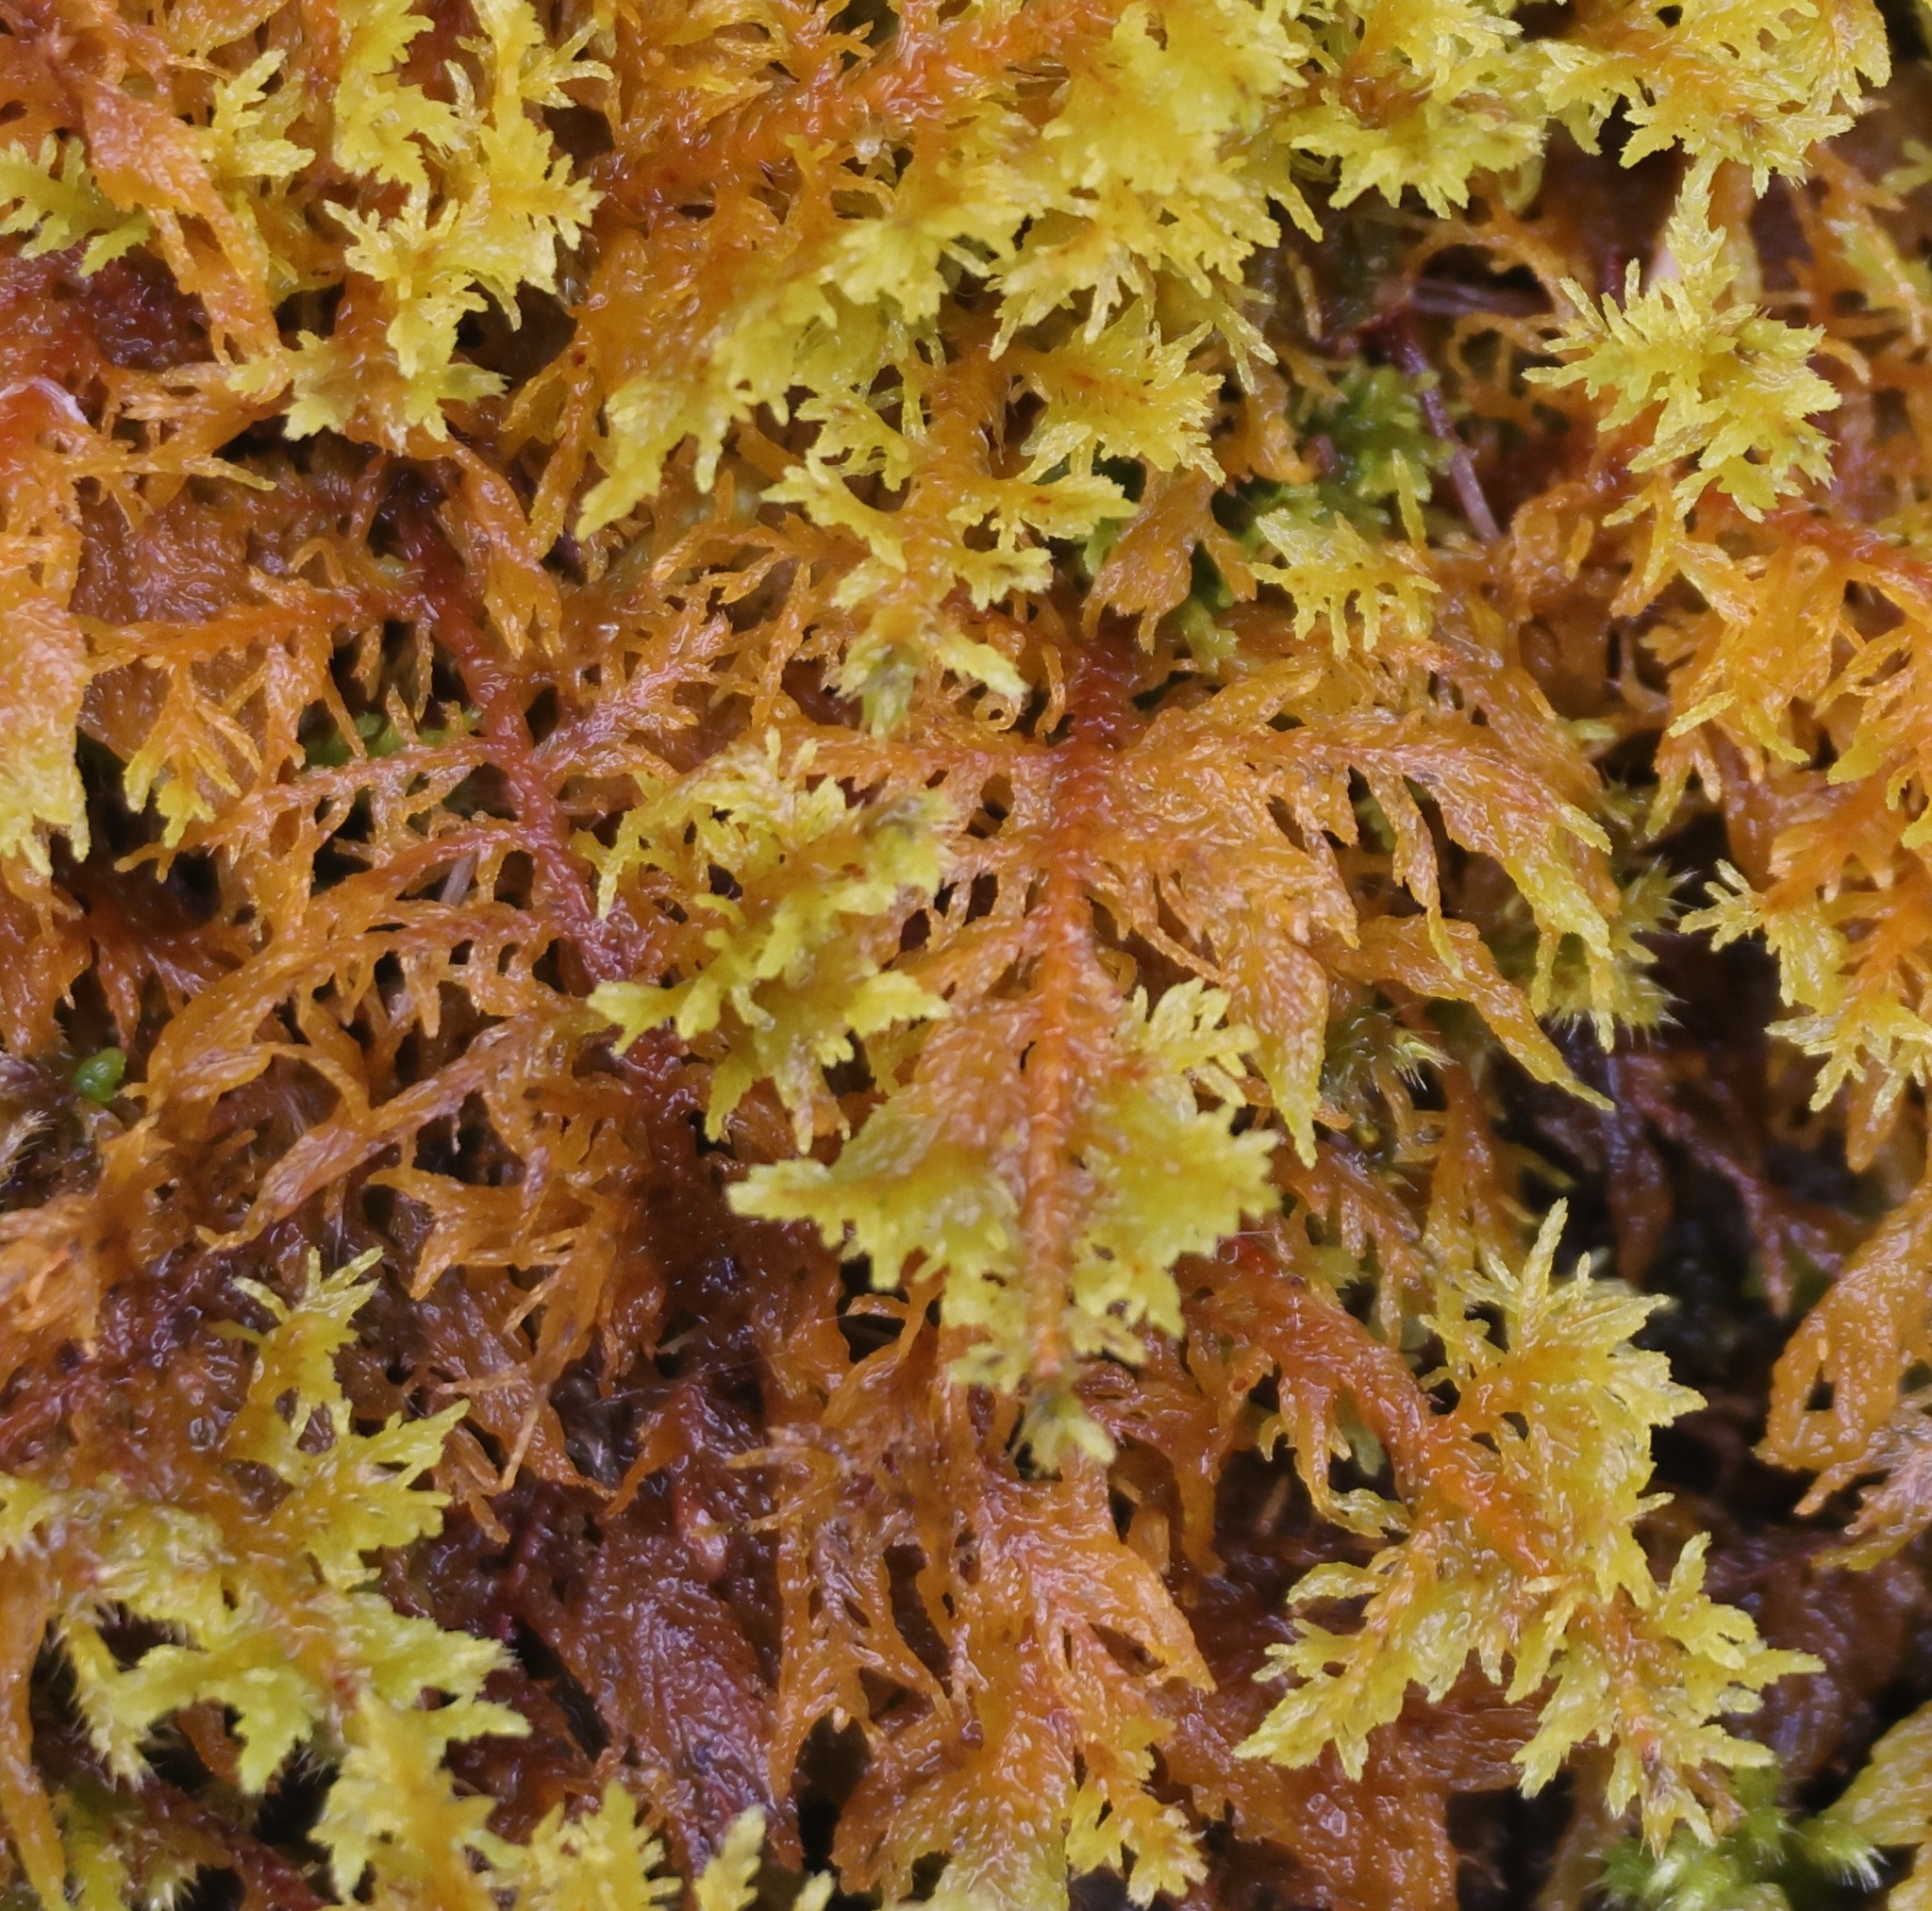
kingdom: Plantae
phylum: Bryophyta
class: Bryopsida
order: Hypnales
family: Hylocomiaceae
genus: Hylocomium
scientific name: Hylocomium splendens
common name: Stairstep moss
